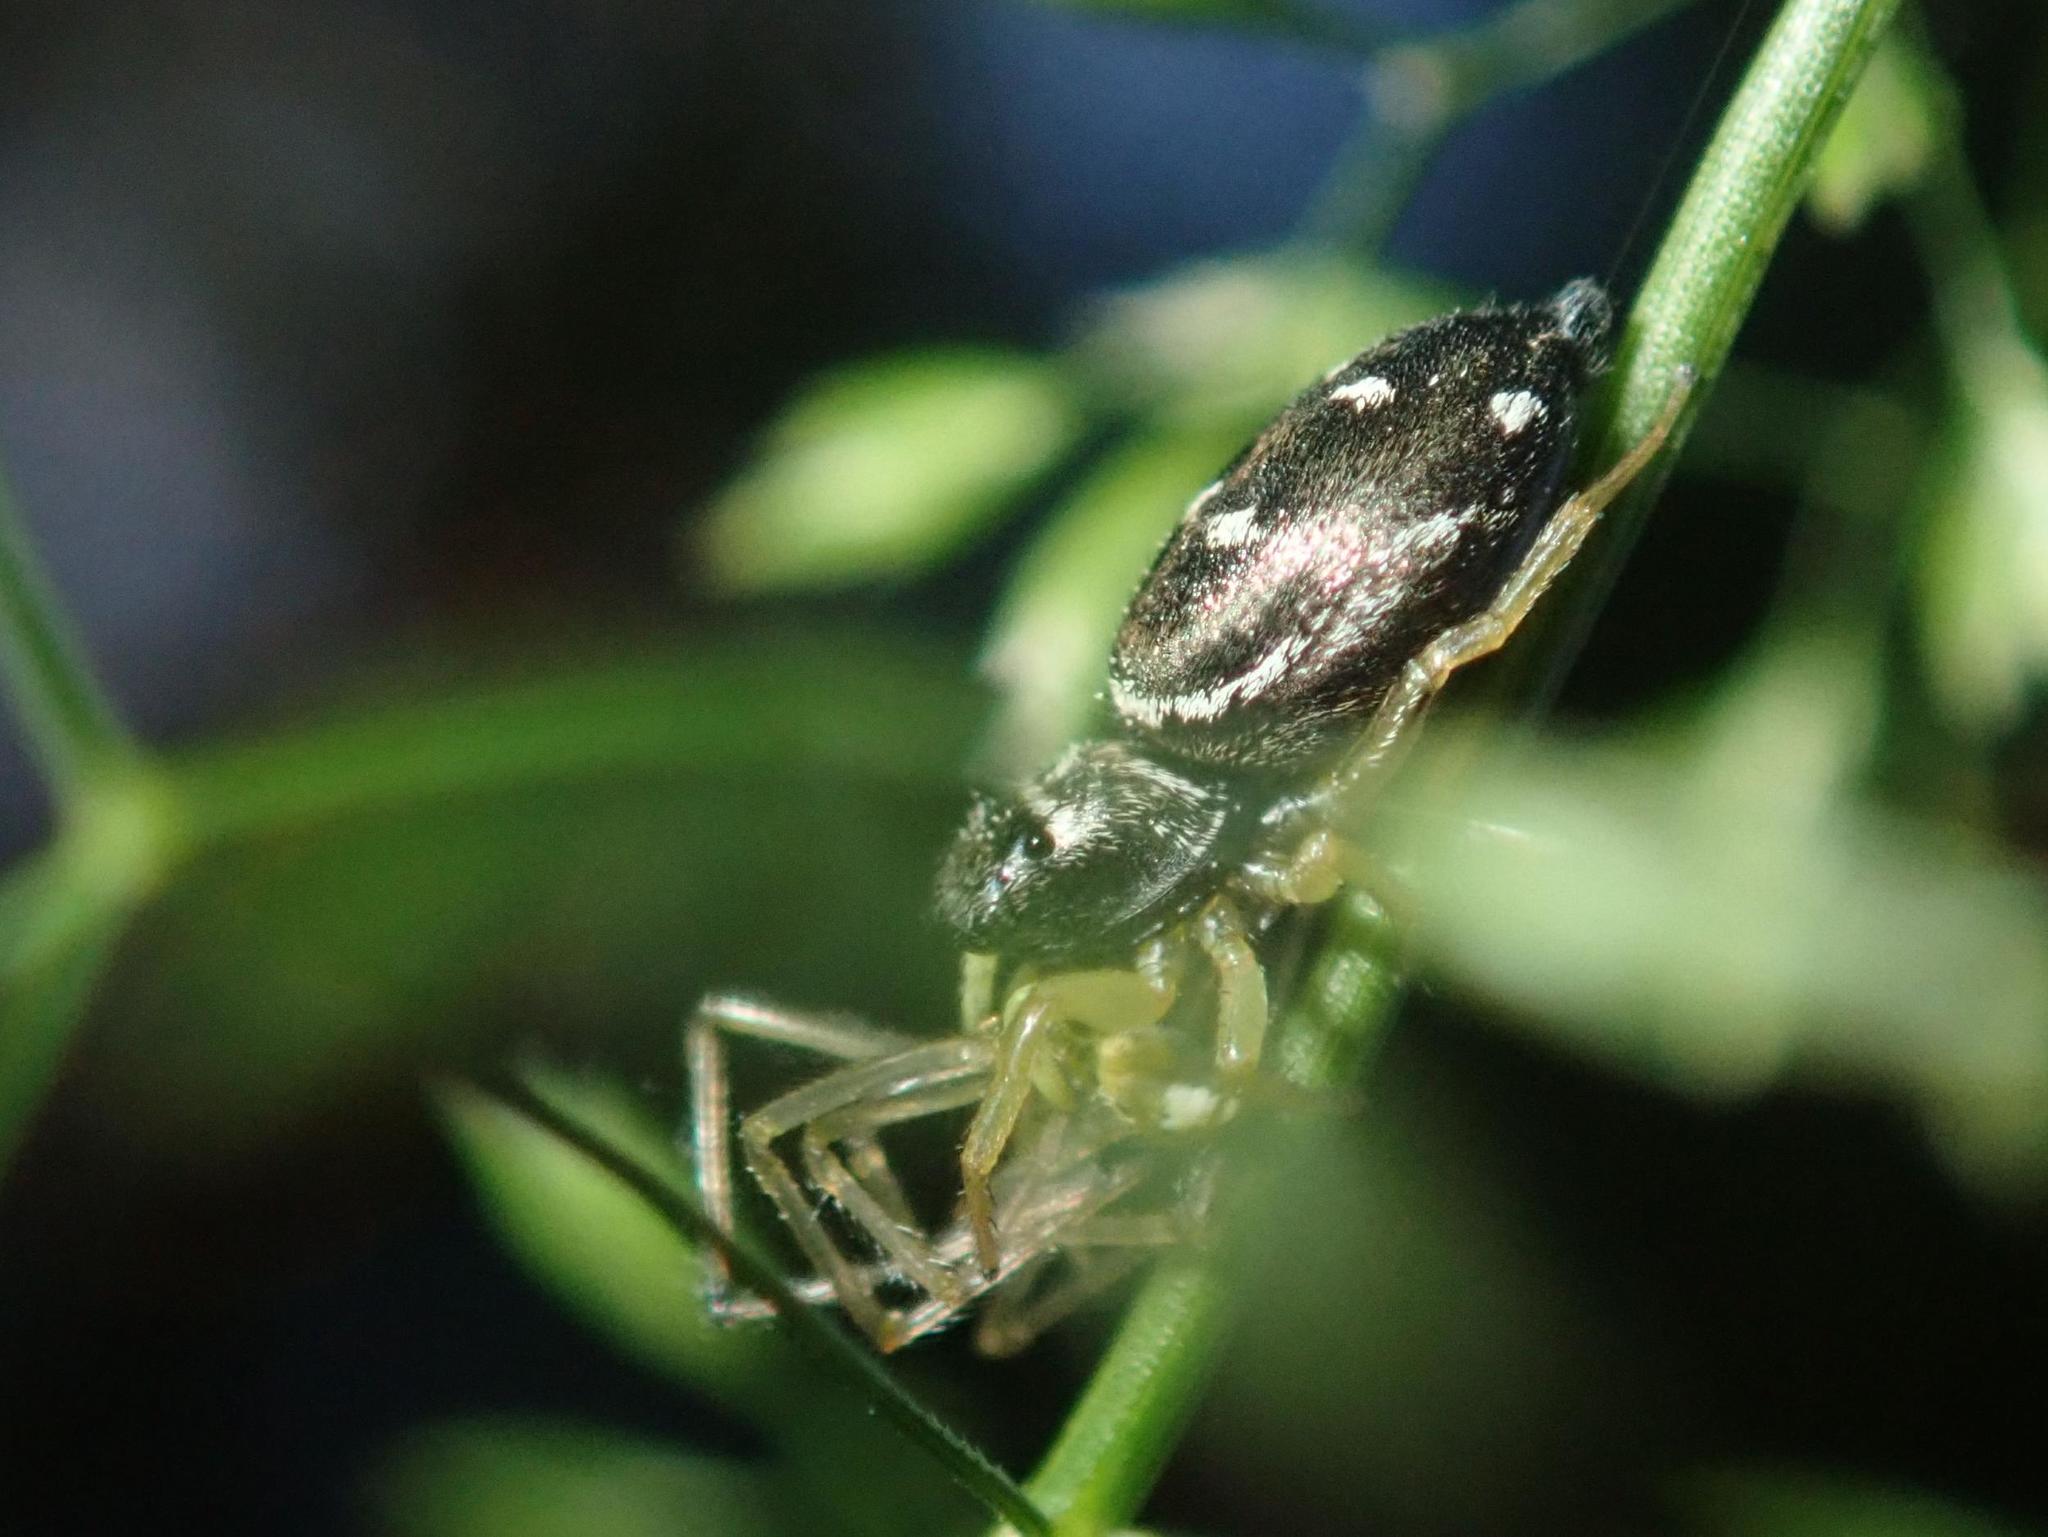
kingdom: Animalia
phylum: Arthropoda
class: Arachnida
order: Araneae
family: Salticidae
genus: Heliophanus
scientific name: Heliophanus cupreus
